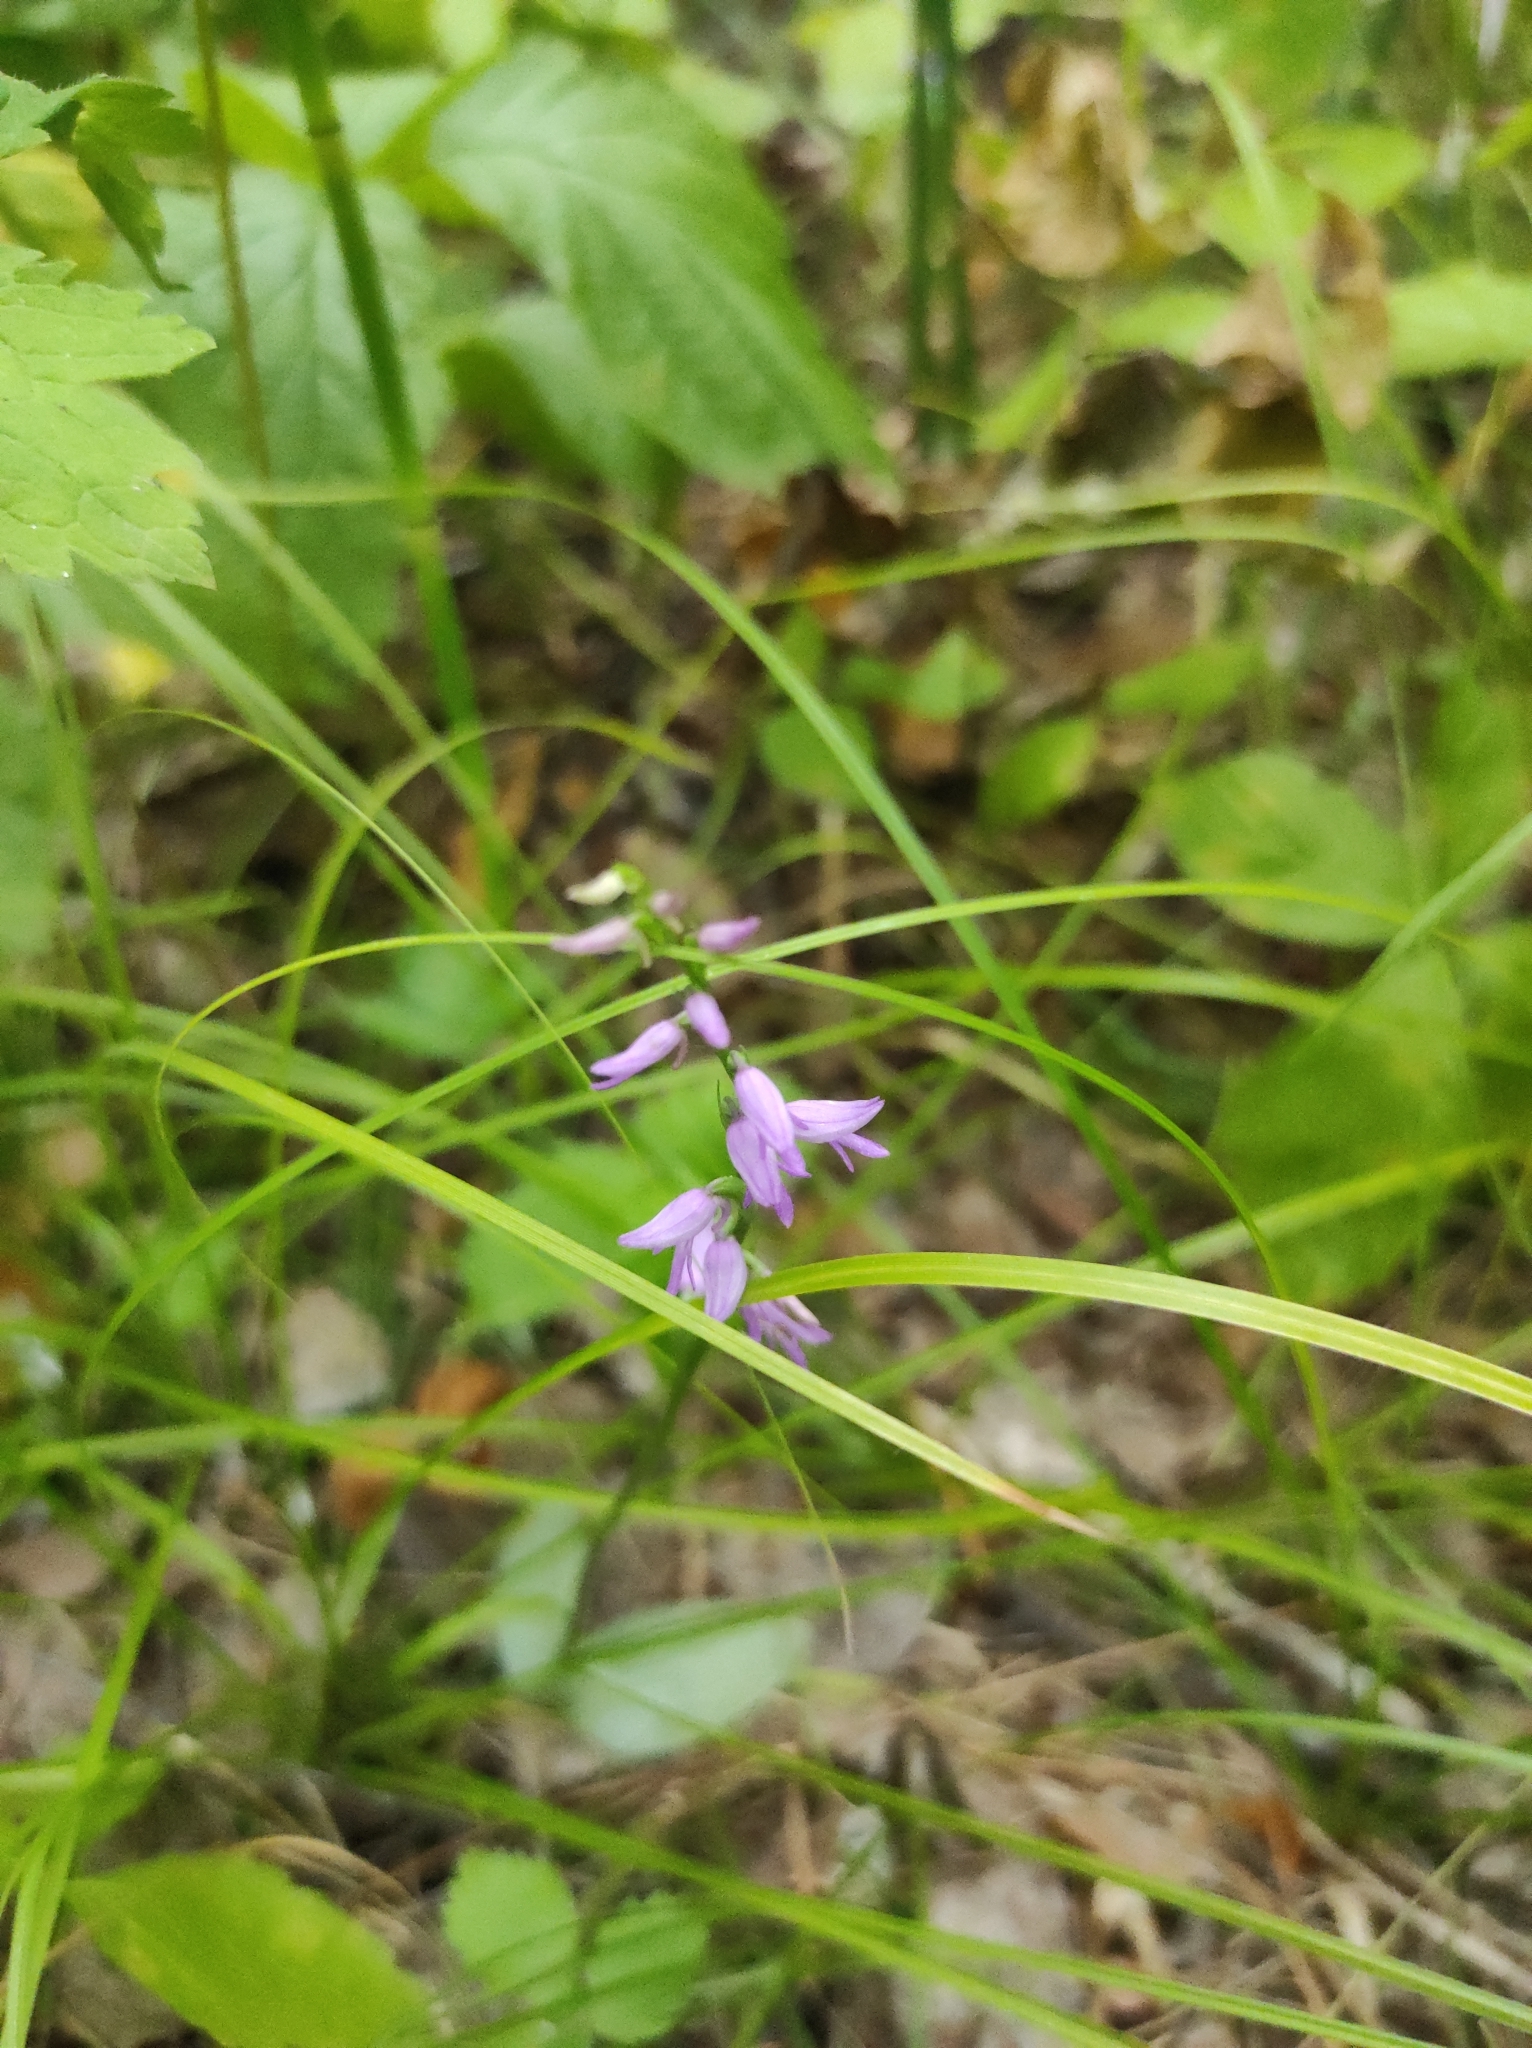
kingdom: Plantae
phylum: Tracheophyta
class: Liliopsida
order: Asparagales
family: Orchidaceae
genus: Hemipilia
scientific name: Hemipilia cucullata
